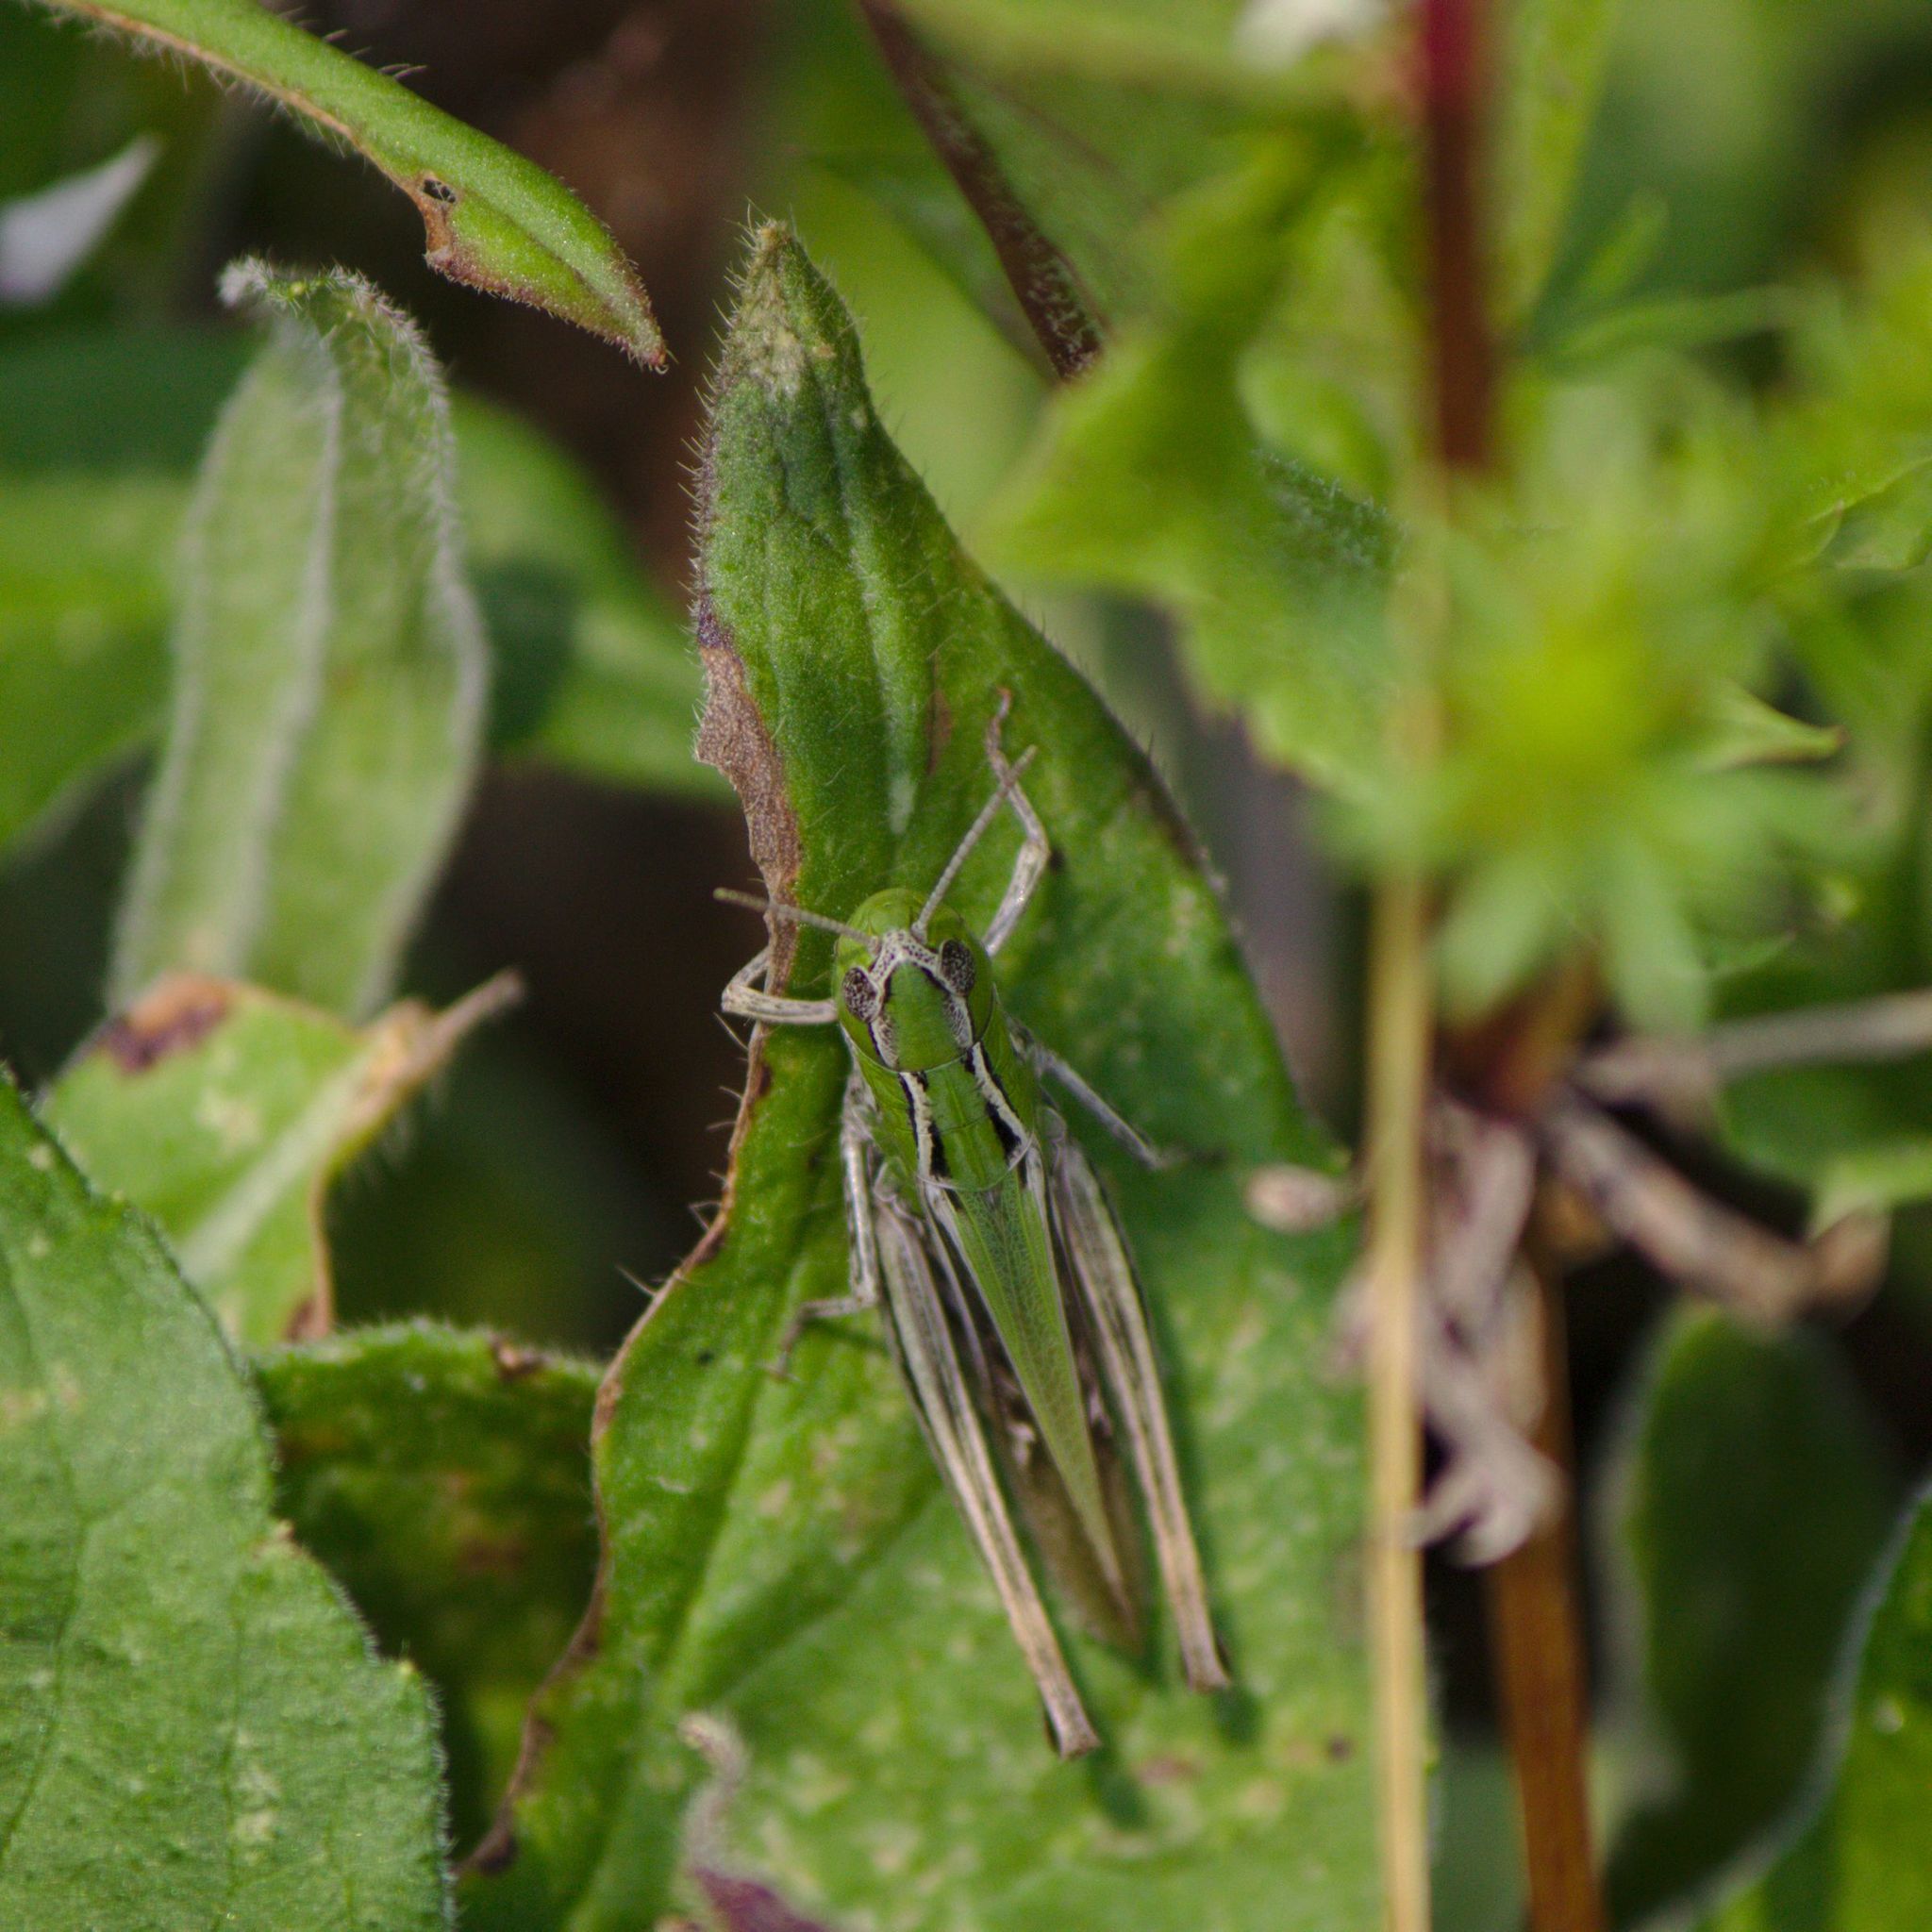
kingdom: Animalia
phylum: Arthropoda
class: Insecta
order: Orthoptera
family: Acrididae
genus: Stenobothrus
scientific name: Stenobothrus lineatus
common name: Stripe-winged grasshopper
